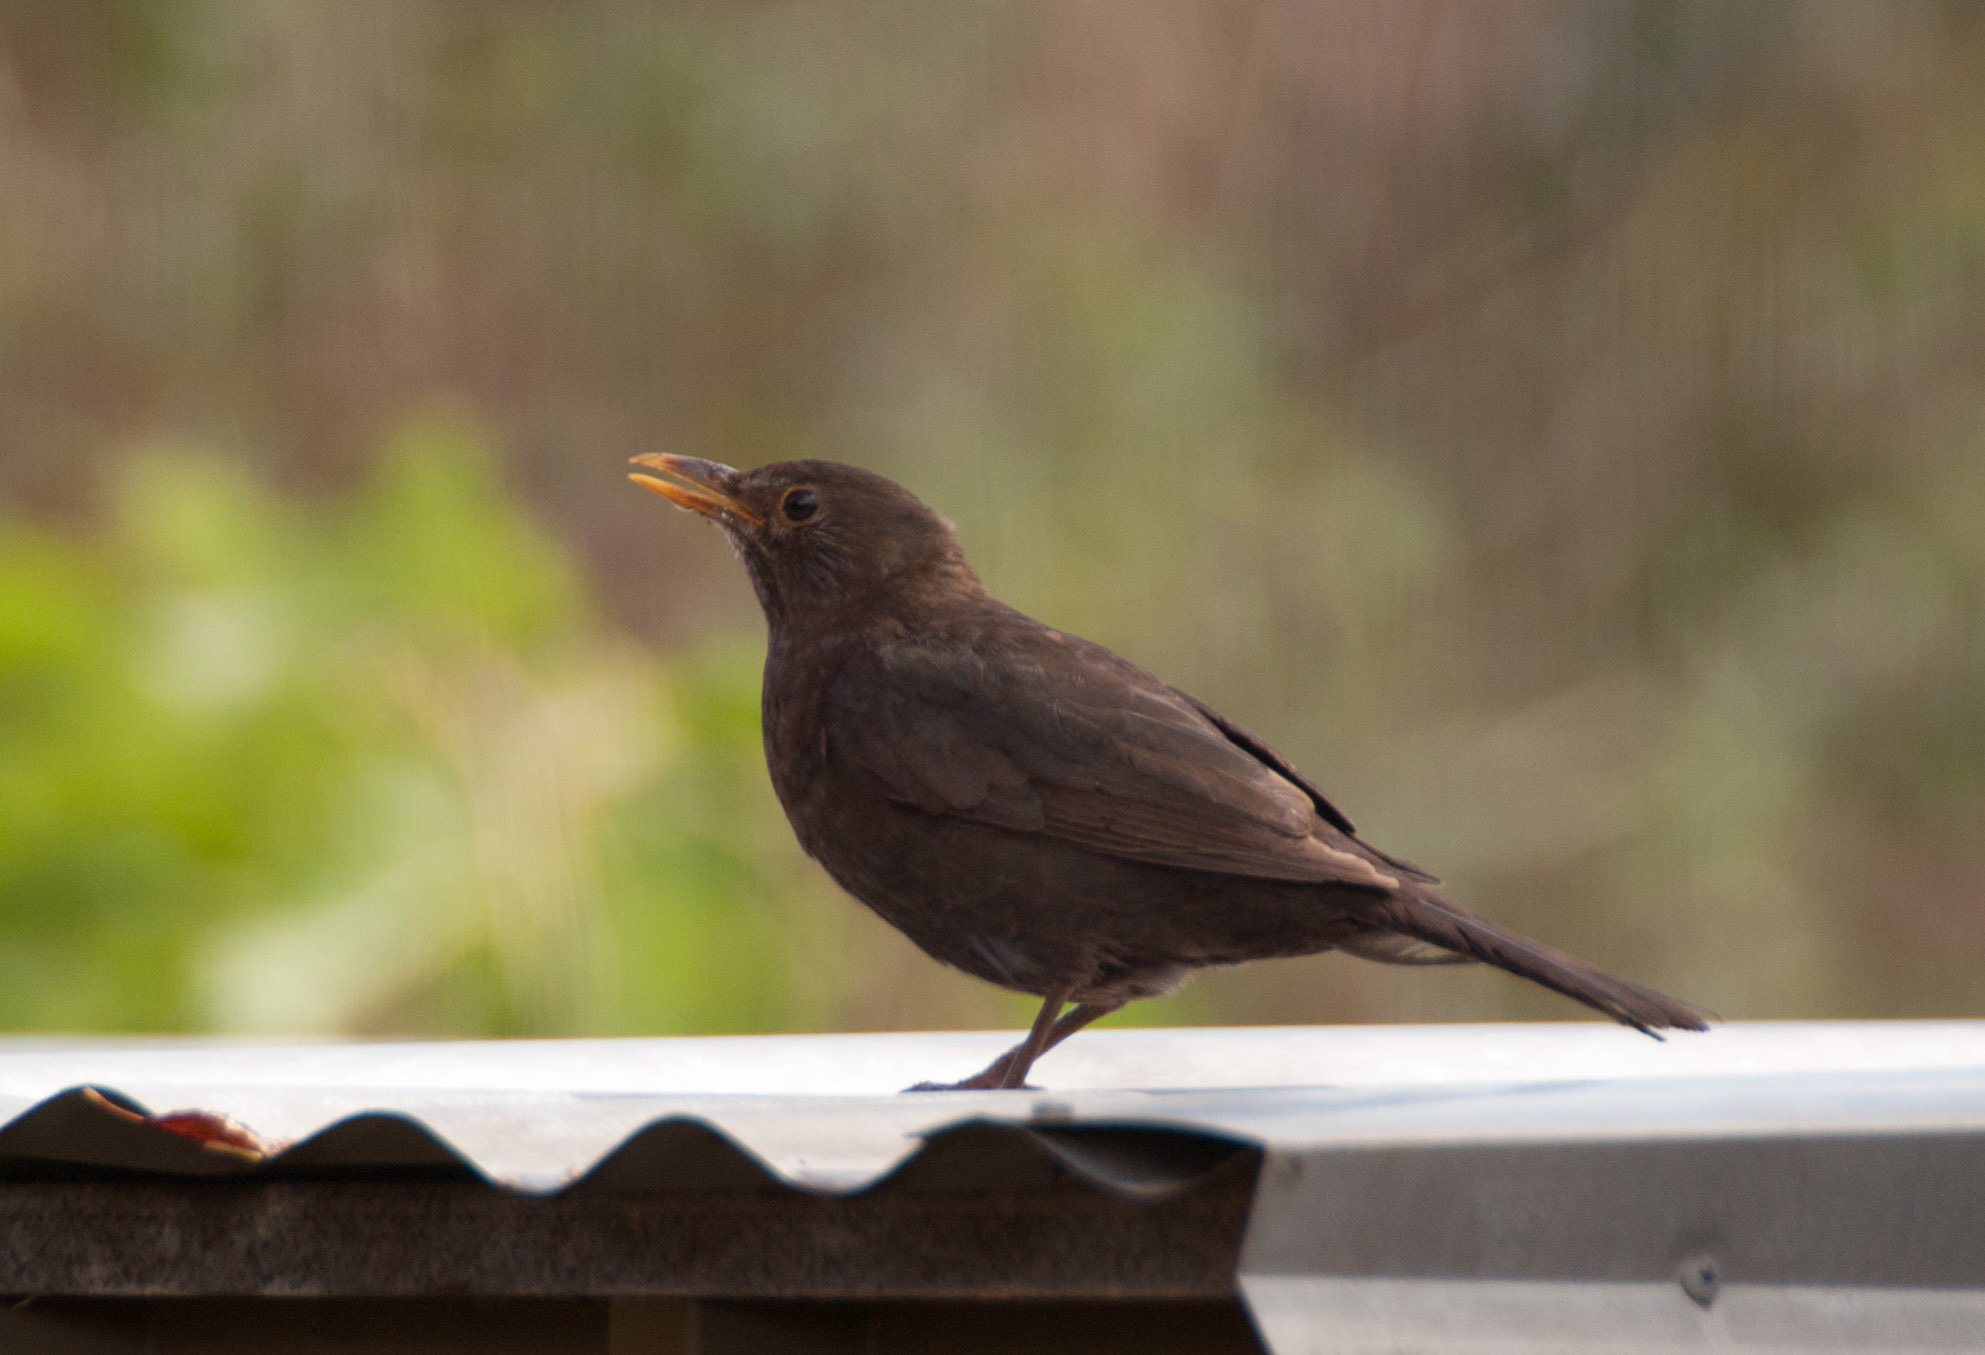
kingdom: Animalia
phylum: Chordata
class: Aves
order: Passeriformes
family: Turdidae
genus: Turdus
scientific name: Turdus merula
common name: Common blackbird
